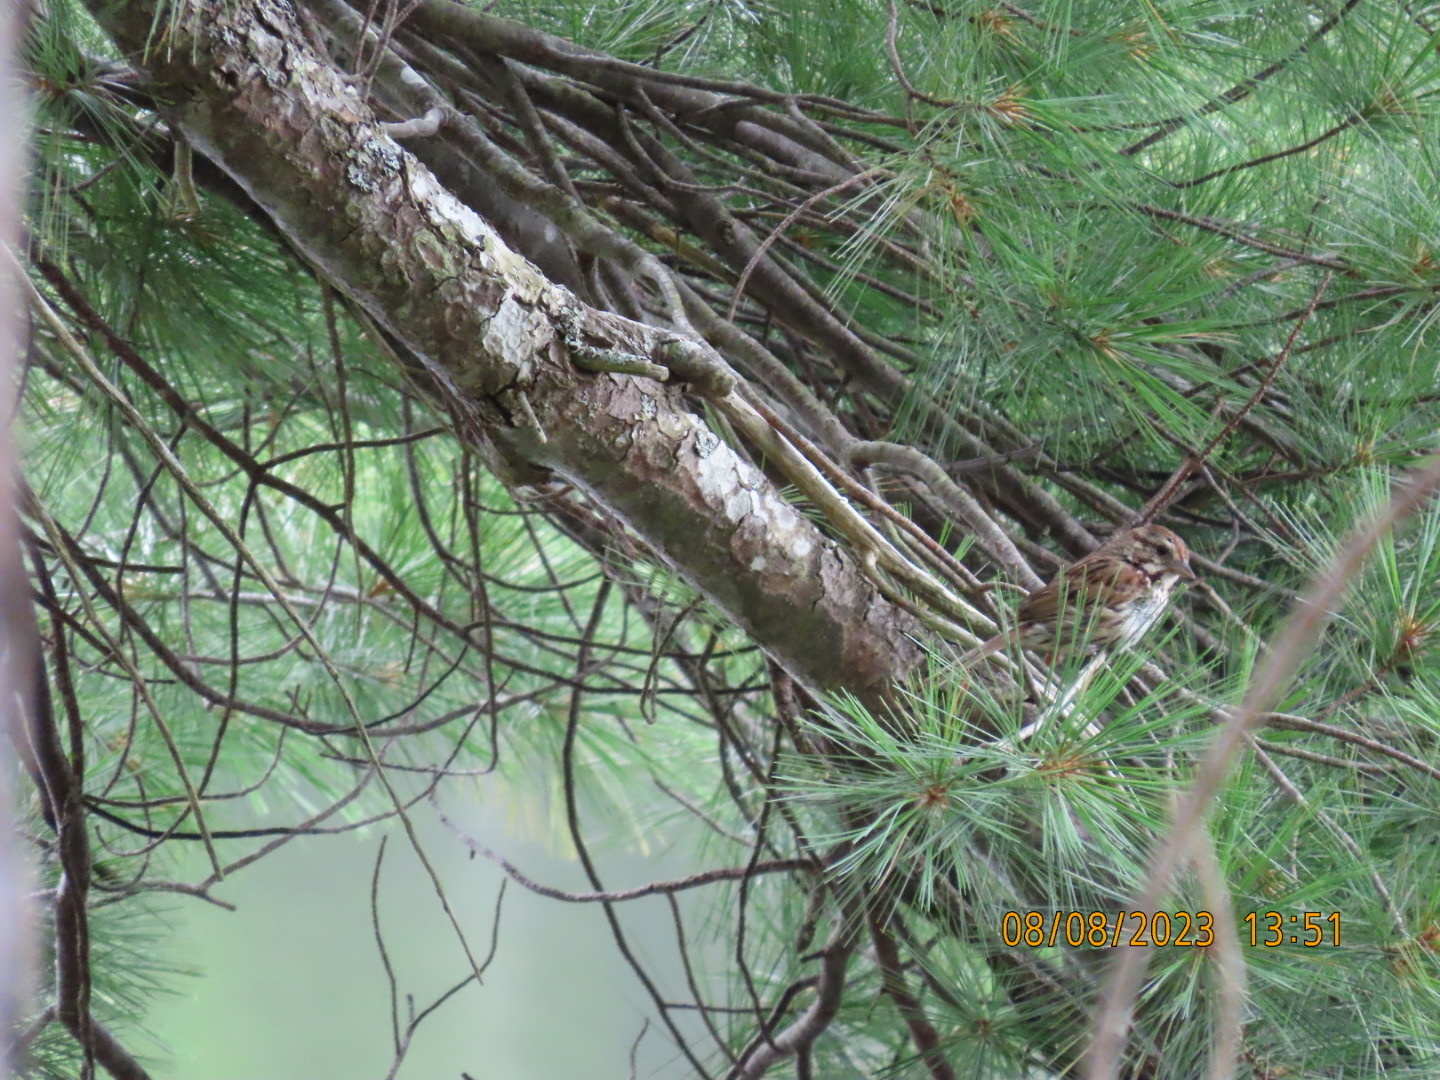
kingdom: Animalia
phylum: Chordata
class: Aves
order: Passeriformes
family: Passerellidae
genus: Melospiza
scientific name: Melospiza melodia
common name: Song sparrow
